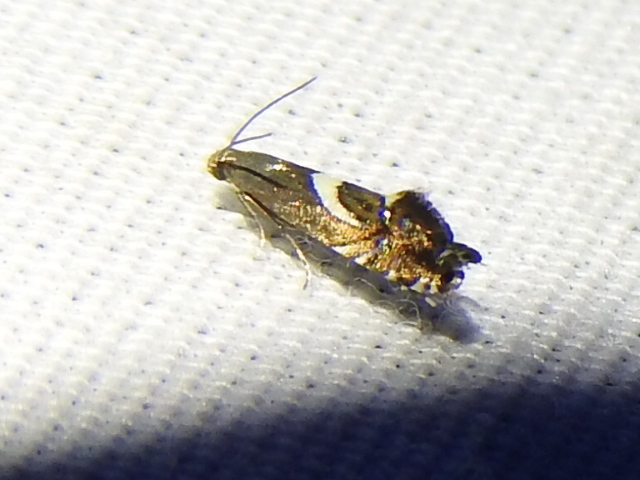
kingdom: Animalia
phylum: Arthropoda
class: Insecta
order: Lepidoptera
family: Glyphipterigidae
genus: Glyphipterix
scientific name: Glyphipterix Diploschizia impigritella
